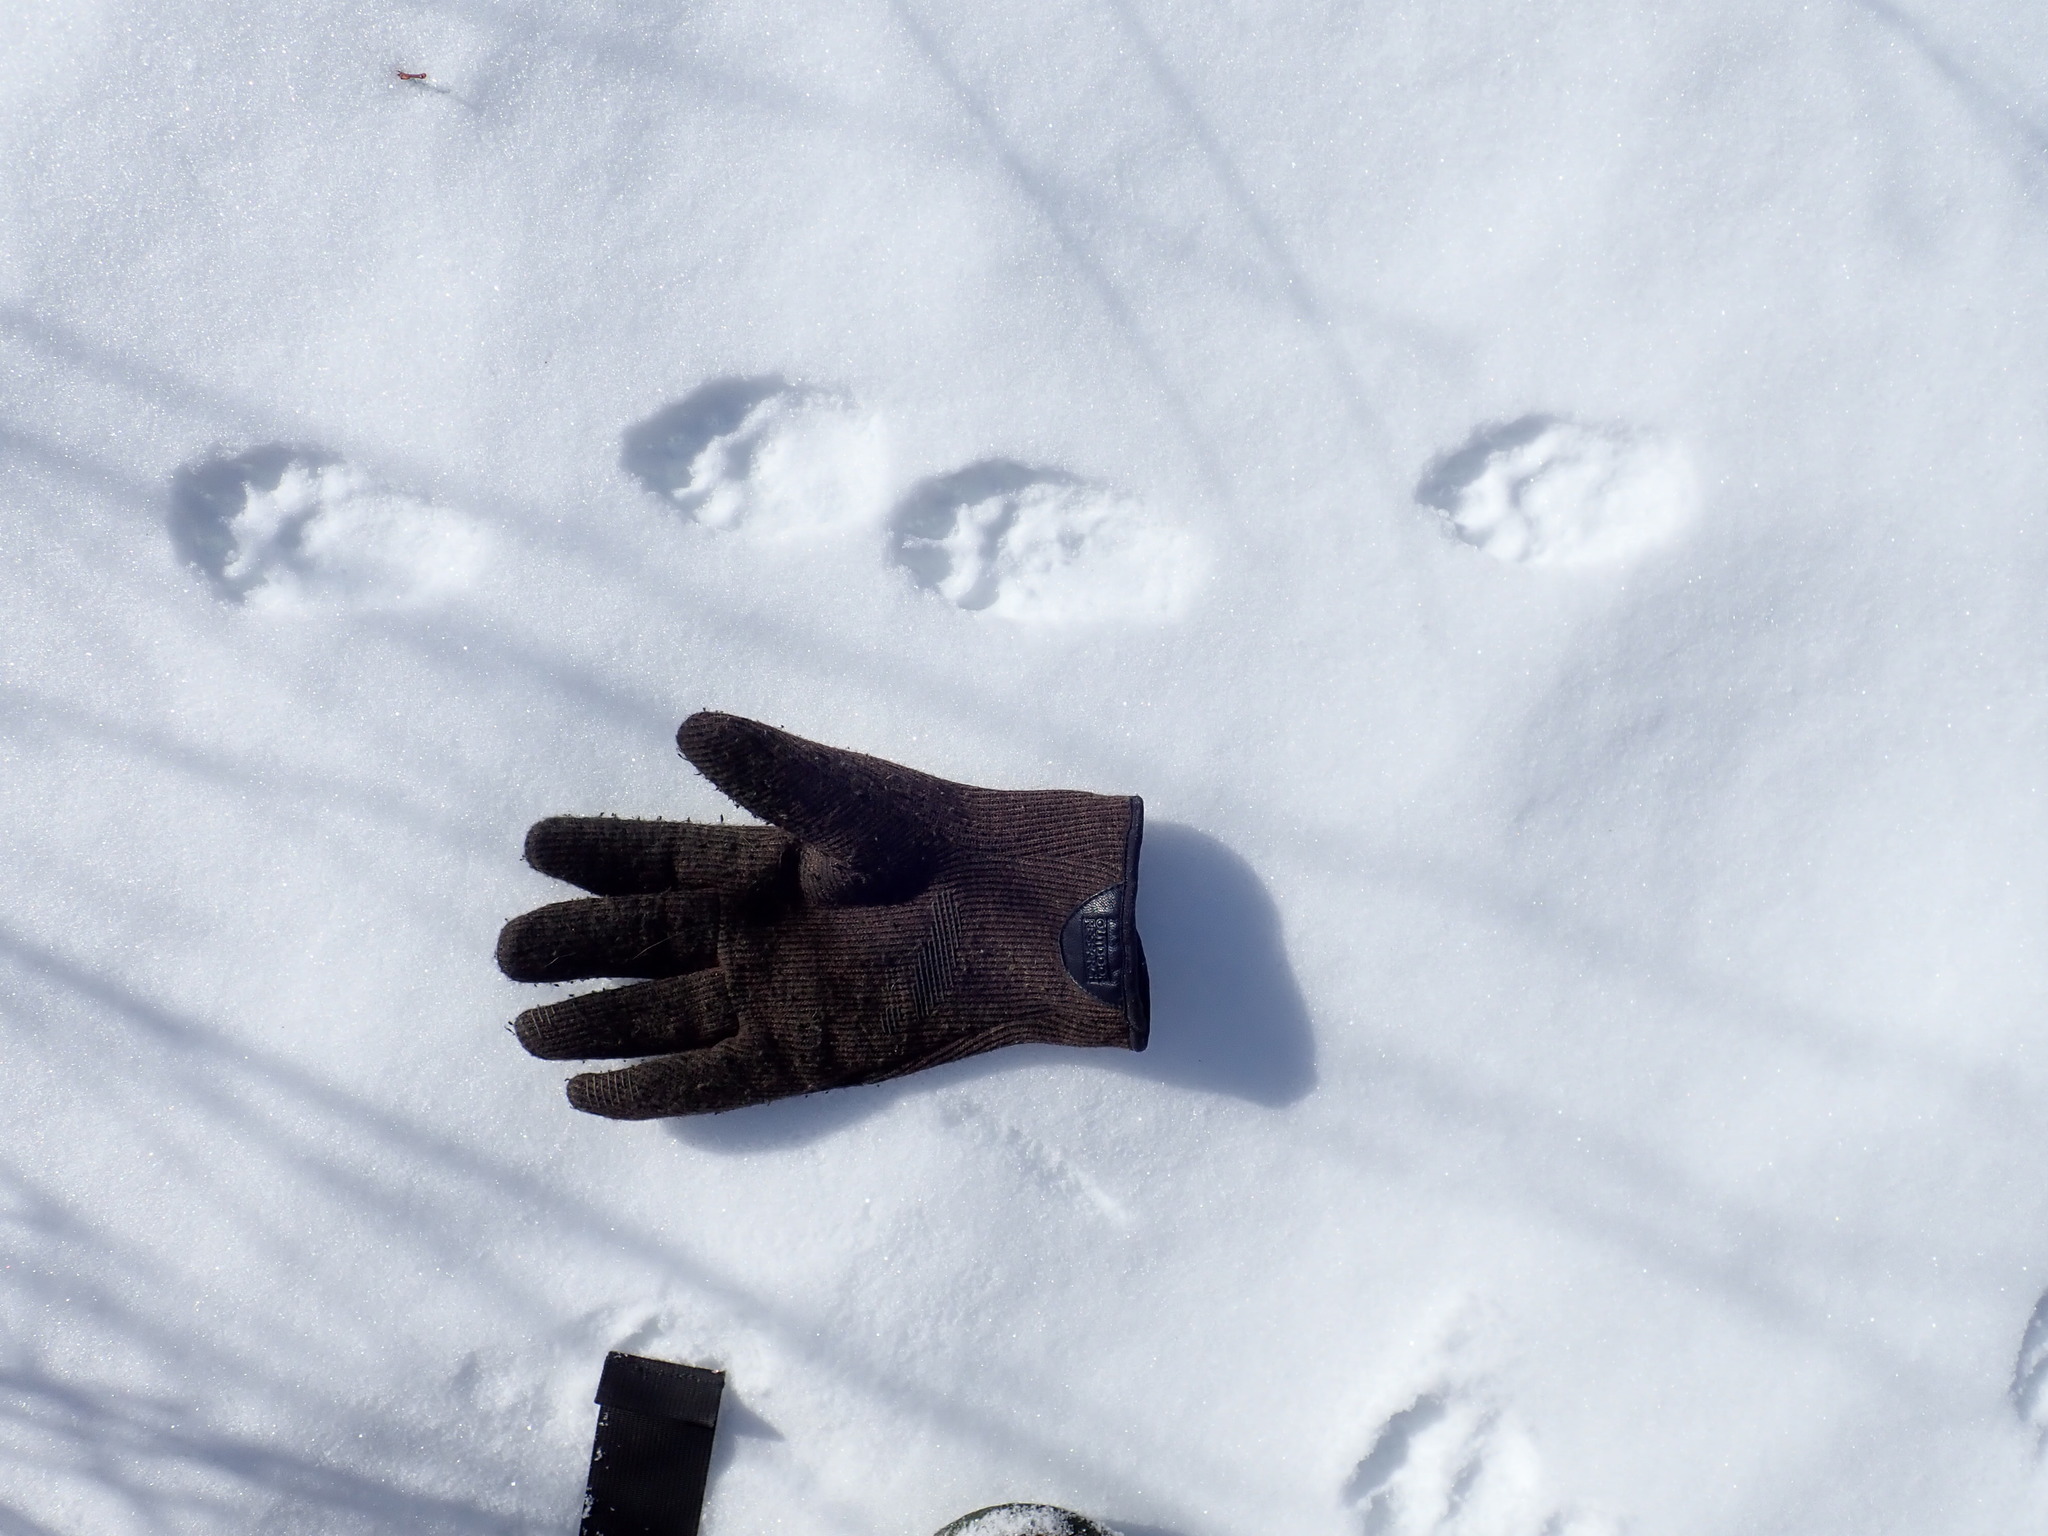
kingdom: Animalia
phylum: Chordata
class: Mammalia
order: Carnivora
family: Mustelidae
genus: Pekania
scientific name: Pekania pennanti
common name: Fisher
